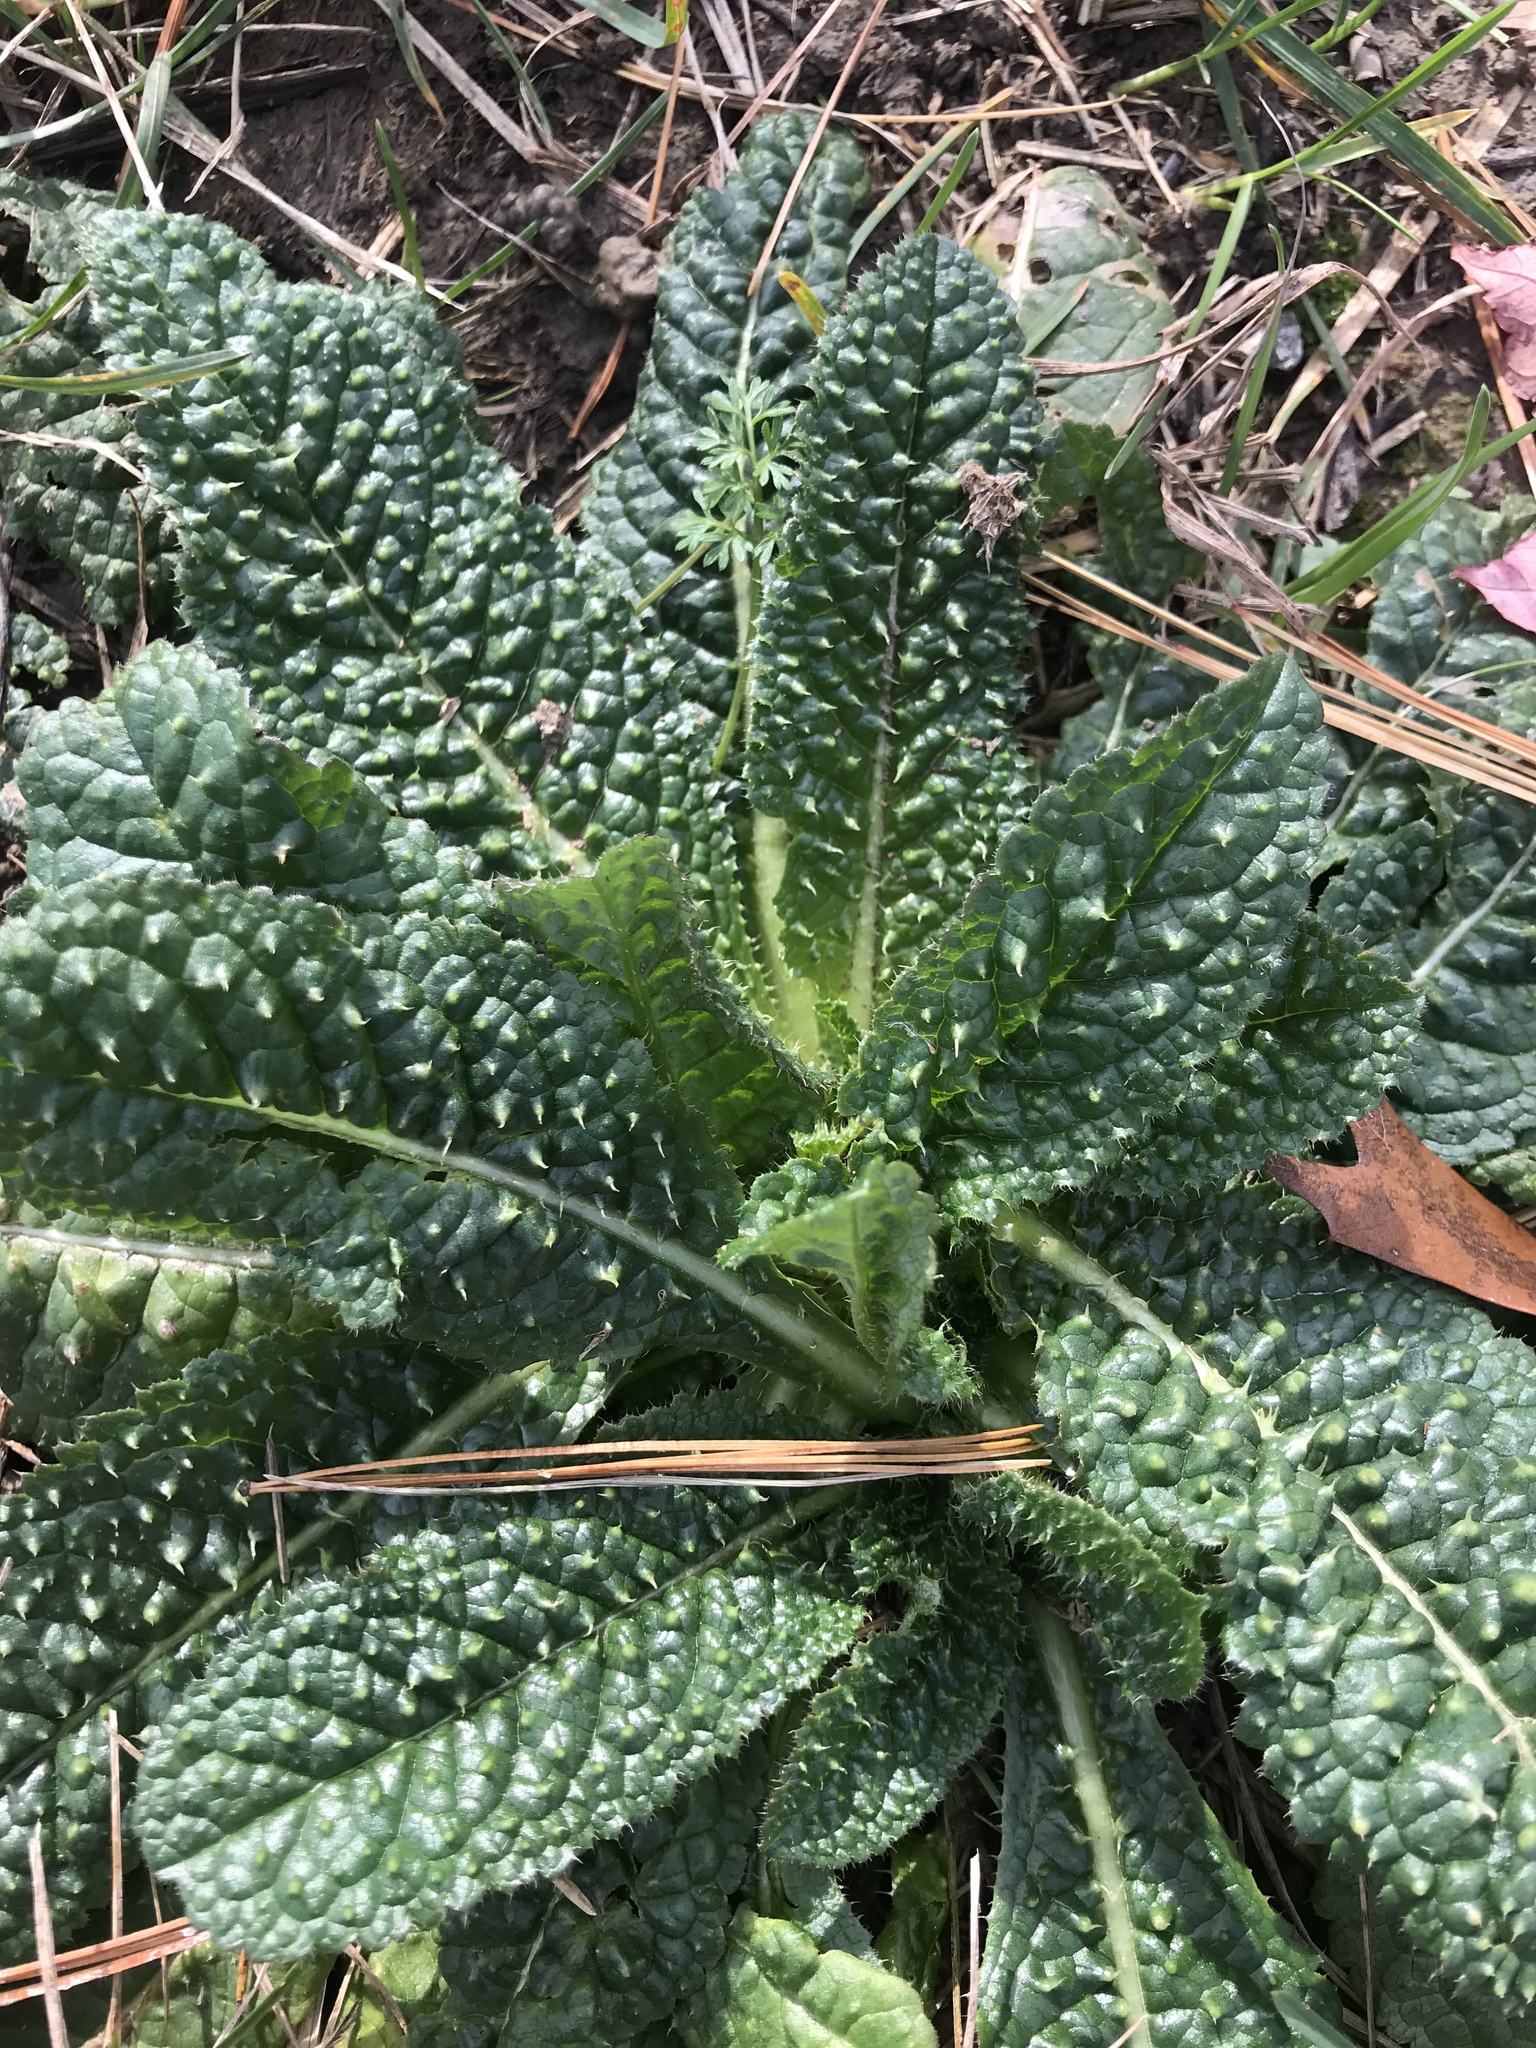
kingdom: Plantae
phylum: Tracheophyta
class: Magnoliopsida
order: Dipsacales
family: Caprifoliaceae
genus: Dipsacus
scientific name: Dipsacus fullonum
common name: Teasel
